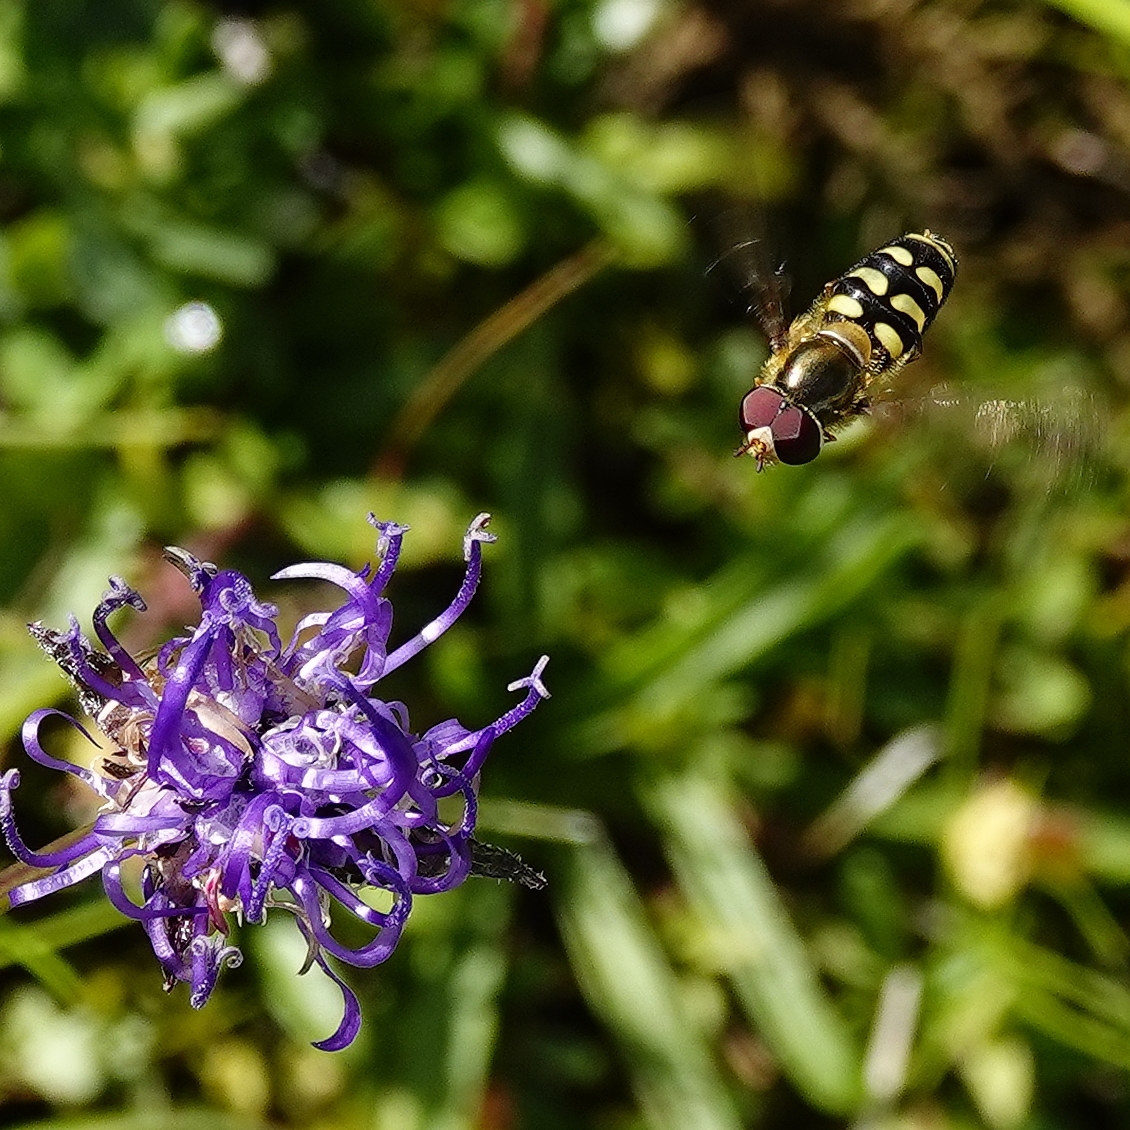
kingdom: Animalia
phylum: Arthropoda
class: Insecta
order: Diptera
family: Syrphidae
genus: Scaeva
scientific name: Scaeva dignota
